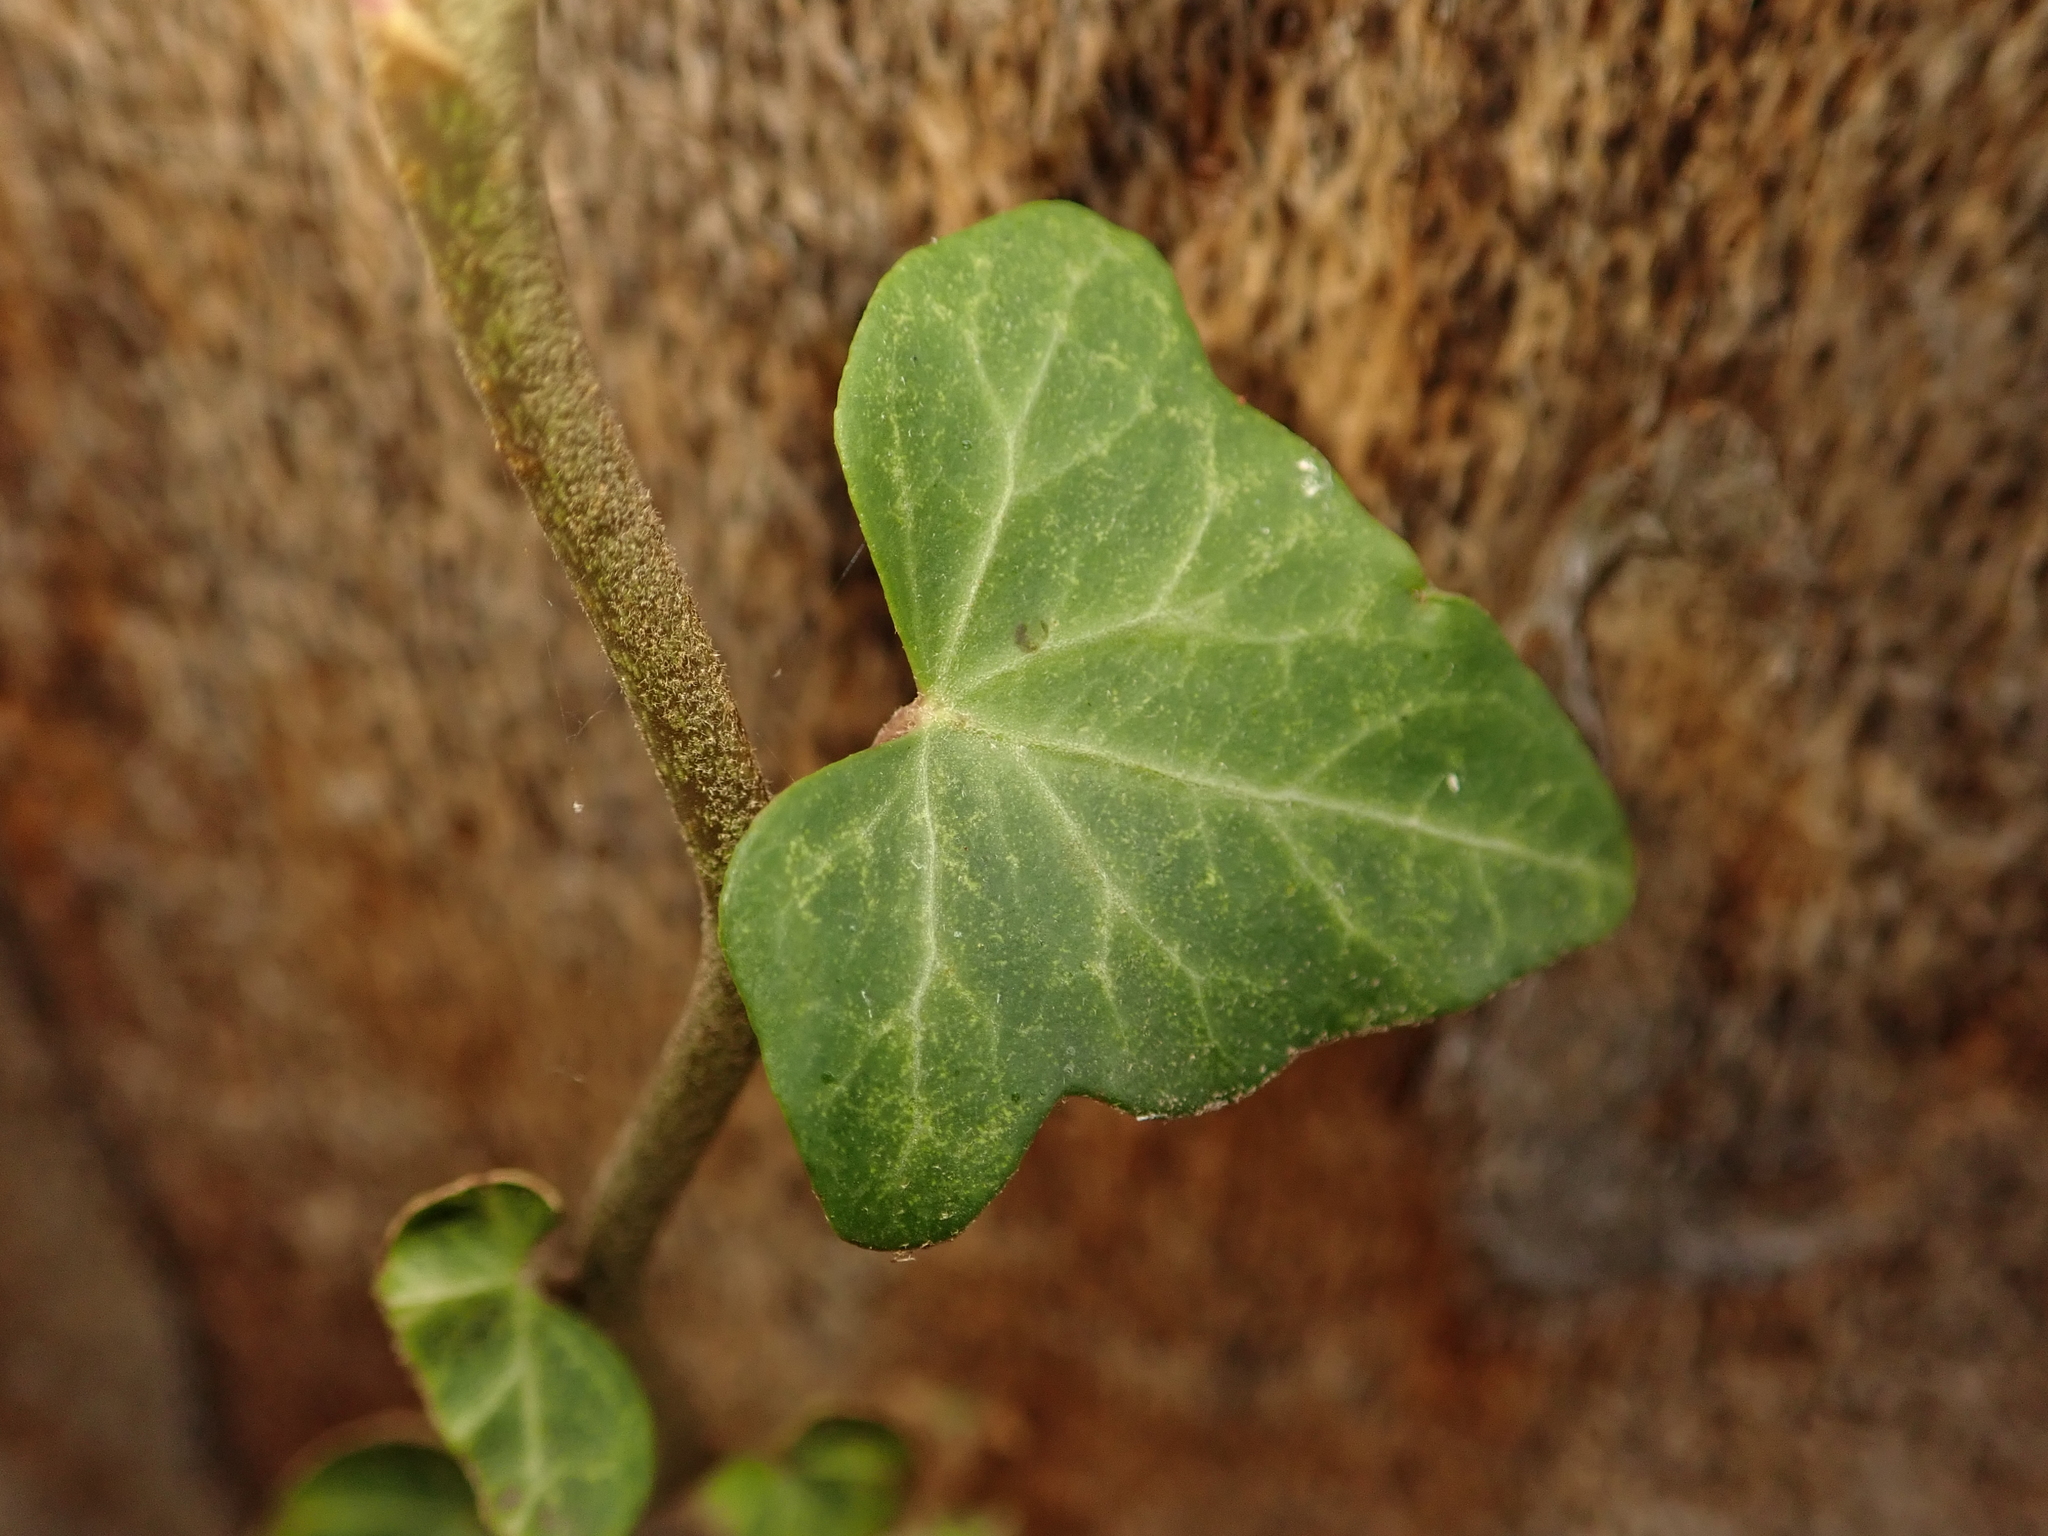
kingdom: Plantae
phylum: Tracheophyta
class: Magnoliopsida
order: Apiales
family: Araliaceae
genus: Hedera
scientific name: Hedera helix
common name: Ivy
